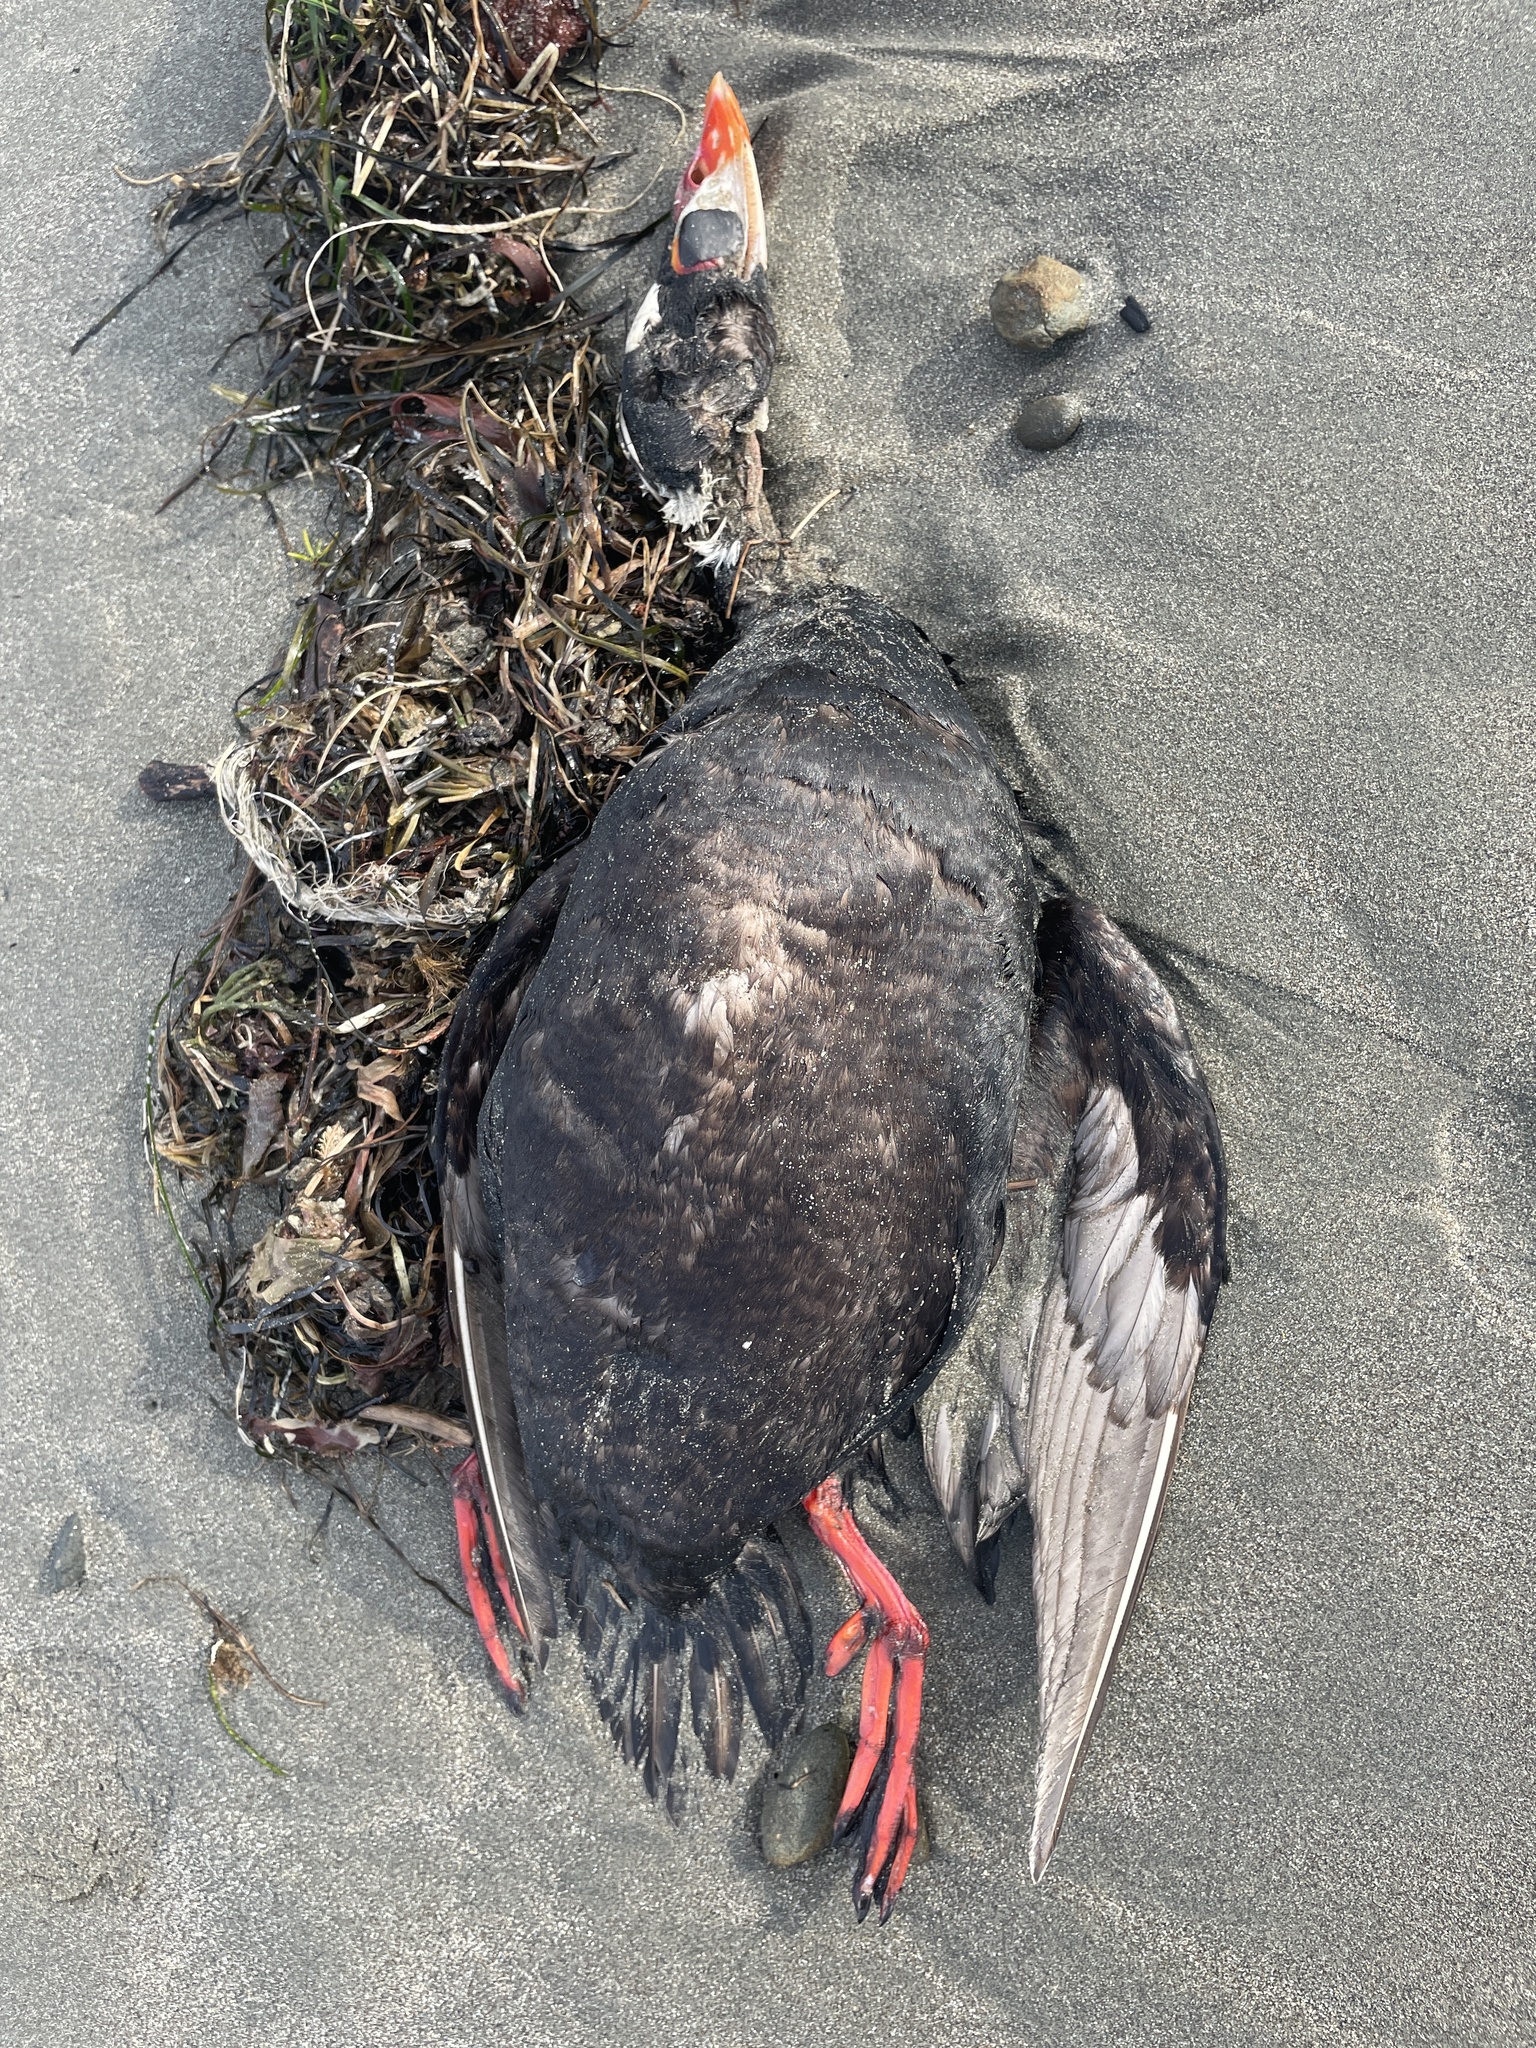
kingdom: Animalia
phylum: Chordata
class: Aves
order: Anseriformes
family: Anatidae
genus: Melanitta
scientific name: Melanitta perspicillata
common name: Surf scoter
